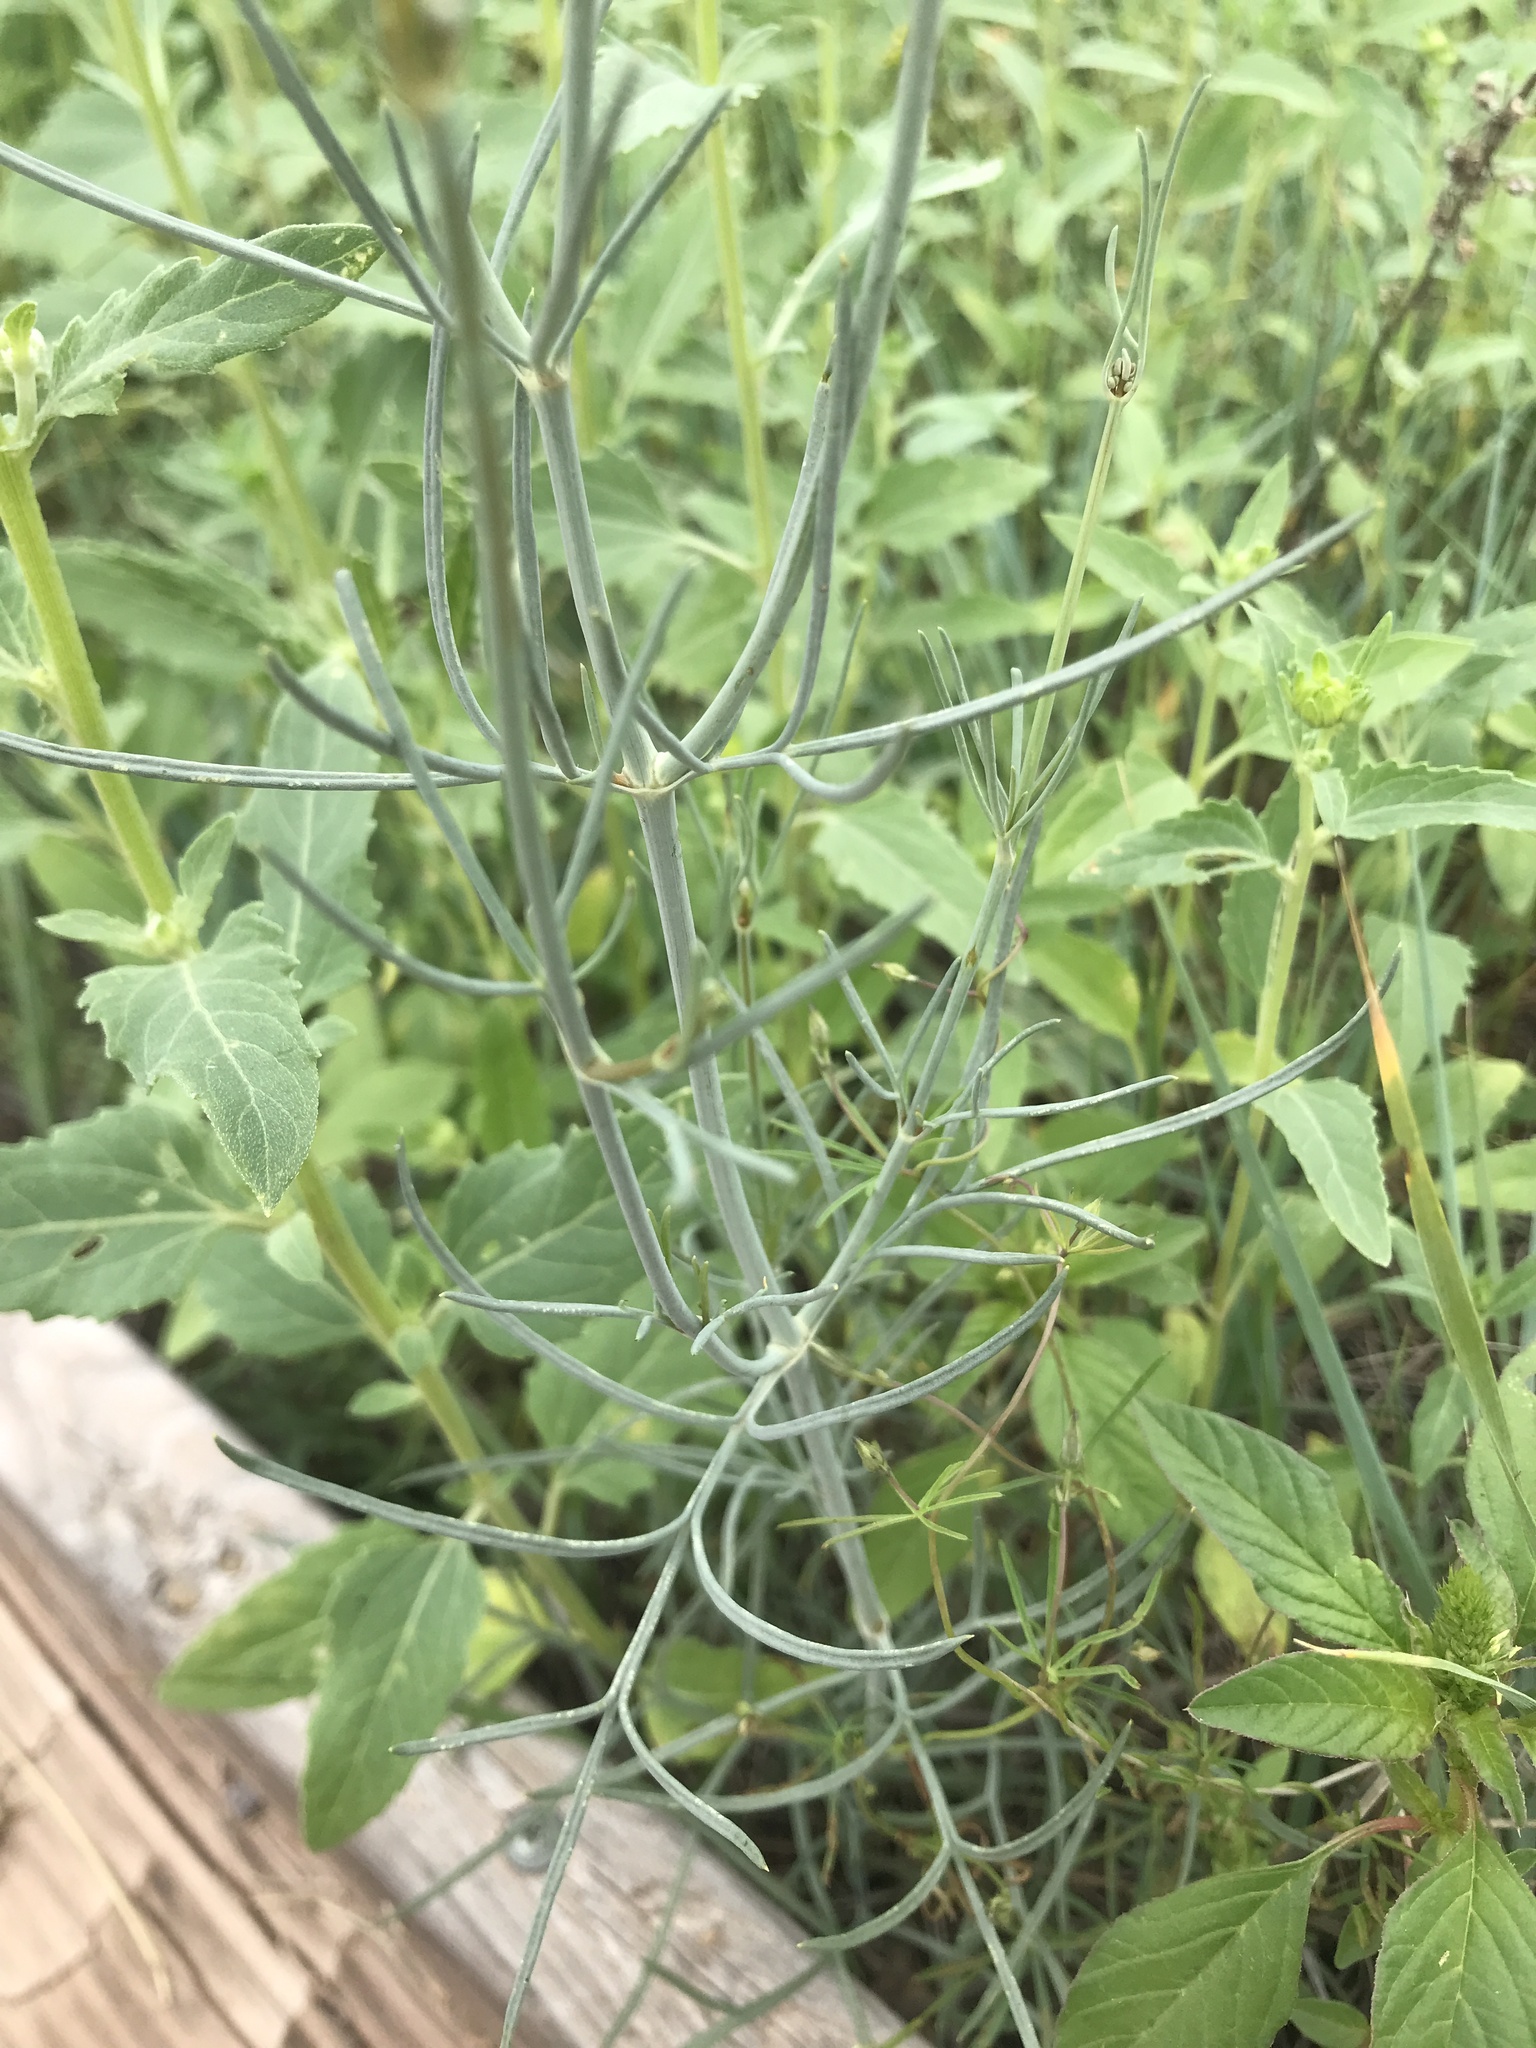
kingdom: Plantae
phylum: Tracheophyta
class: Magnoliopsida
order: Asterales
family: Asteraceae
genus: Thelesperma
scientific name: Thelesperma megapotamicum
